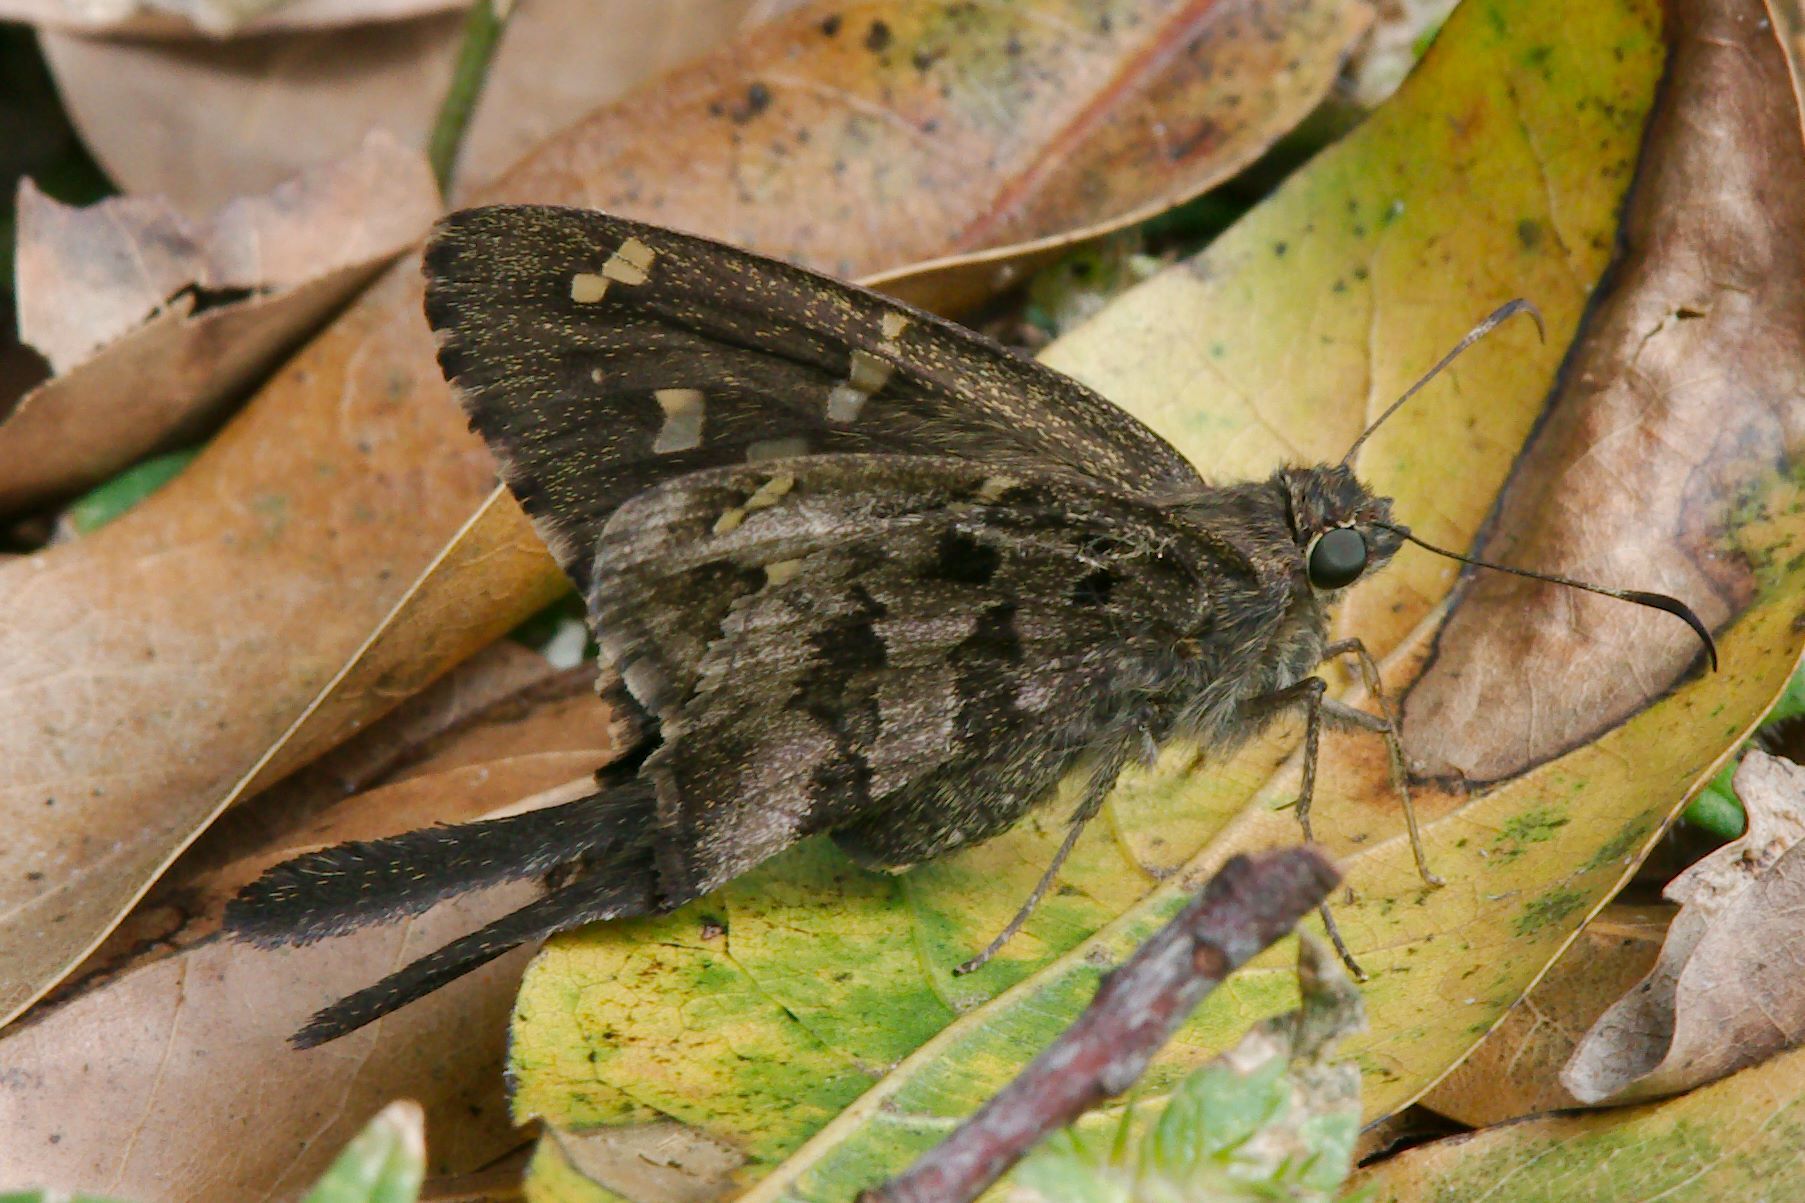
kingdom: Animalia
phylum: Arthropoda
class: Insecta
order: Lepidoptera
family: Hesperiidae
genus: Thorybes
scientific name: Thorybes
